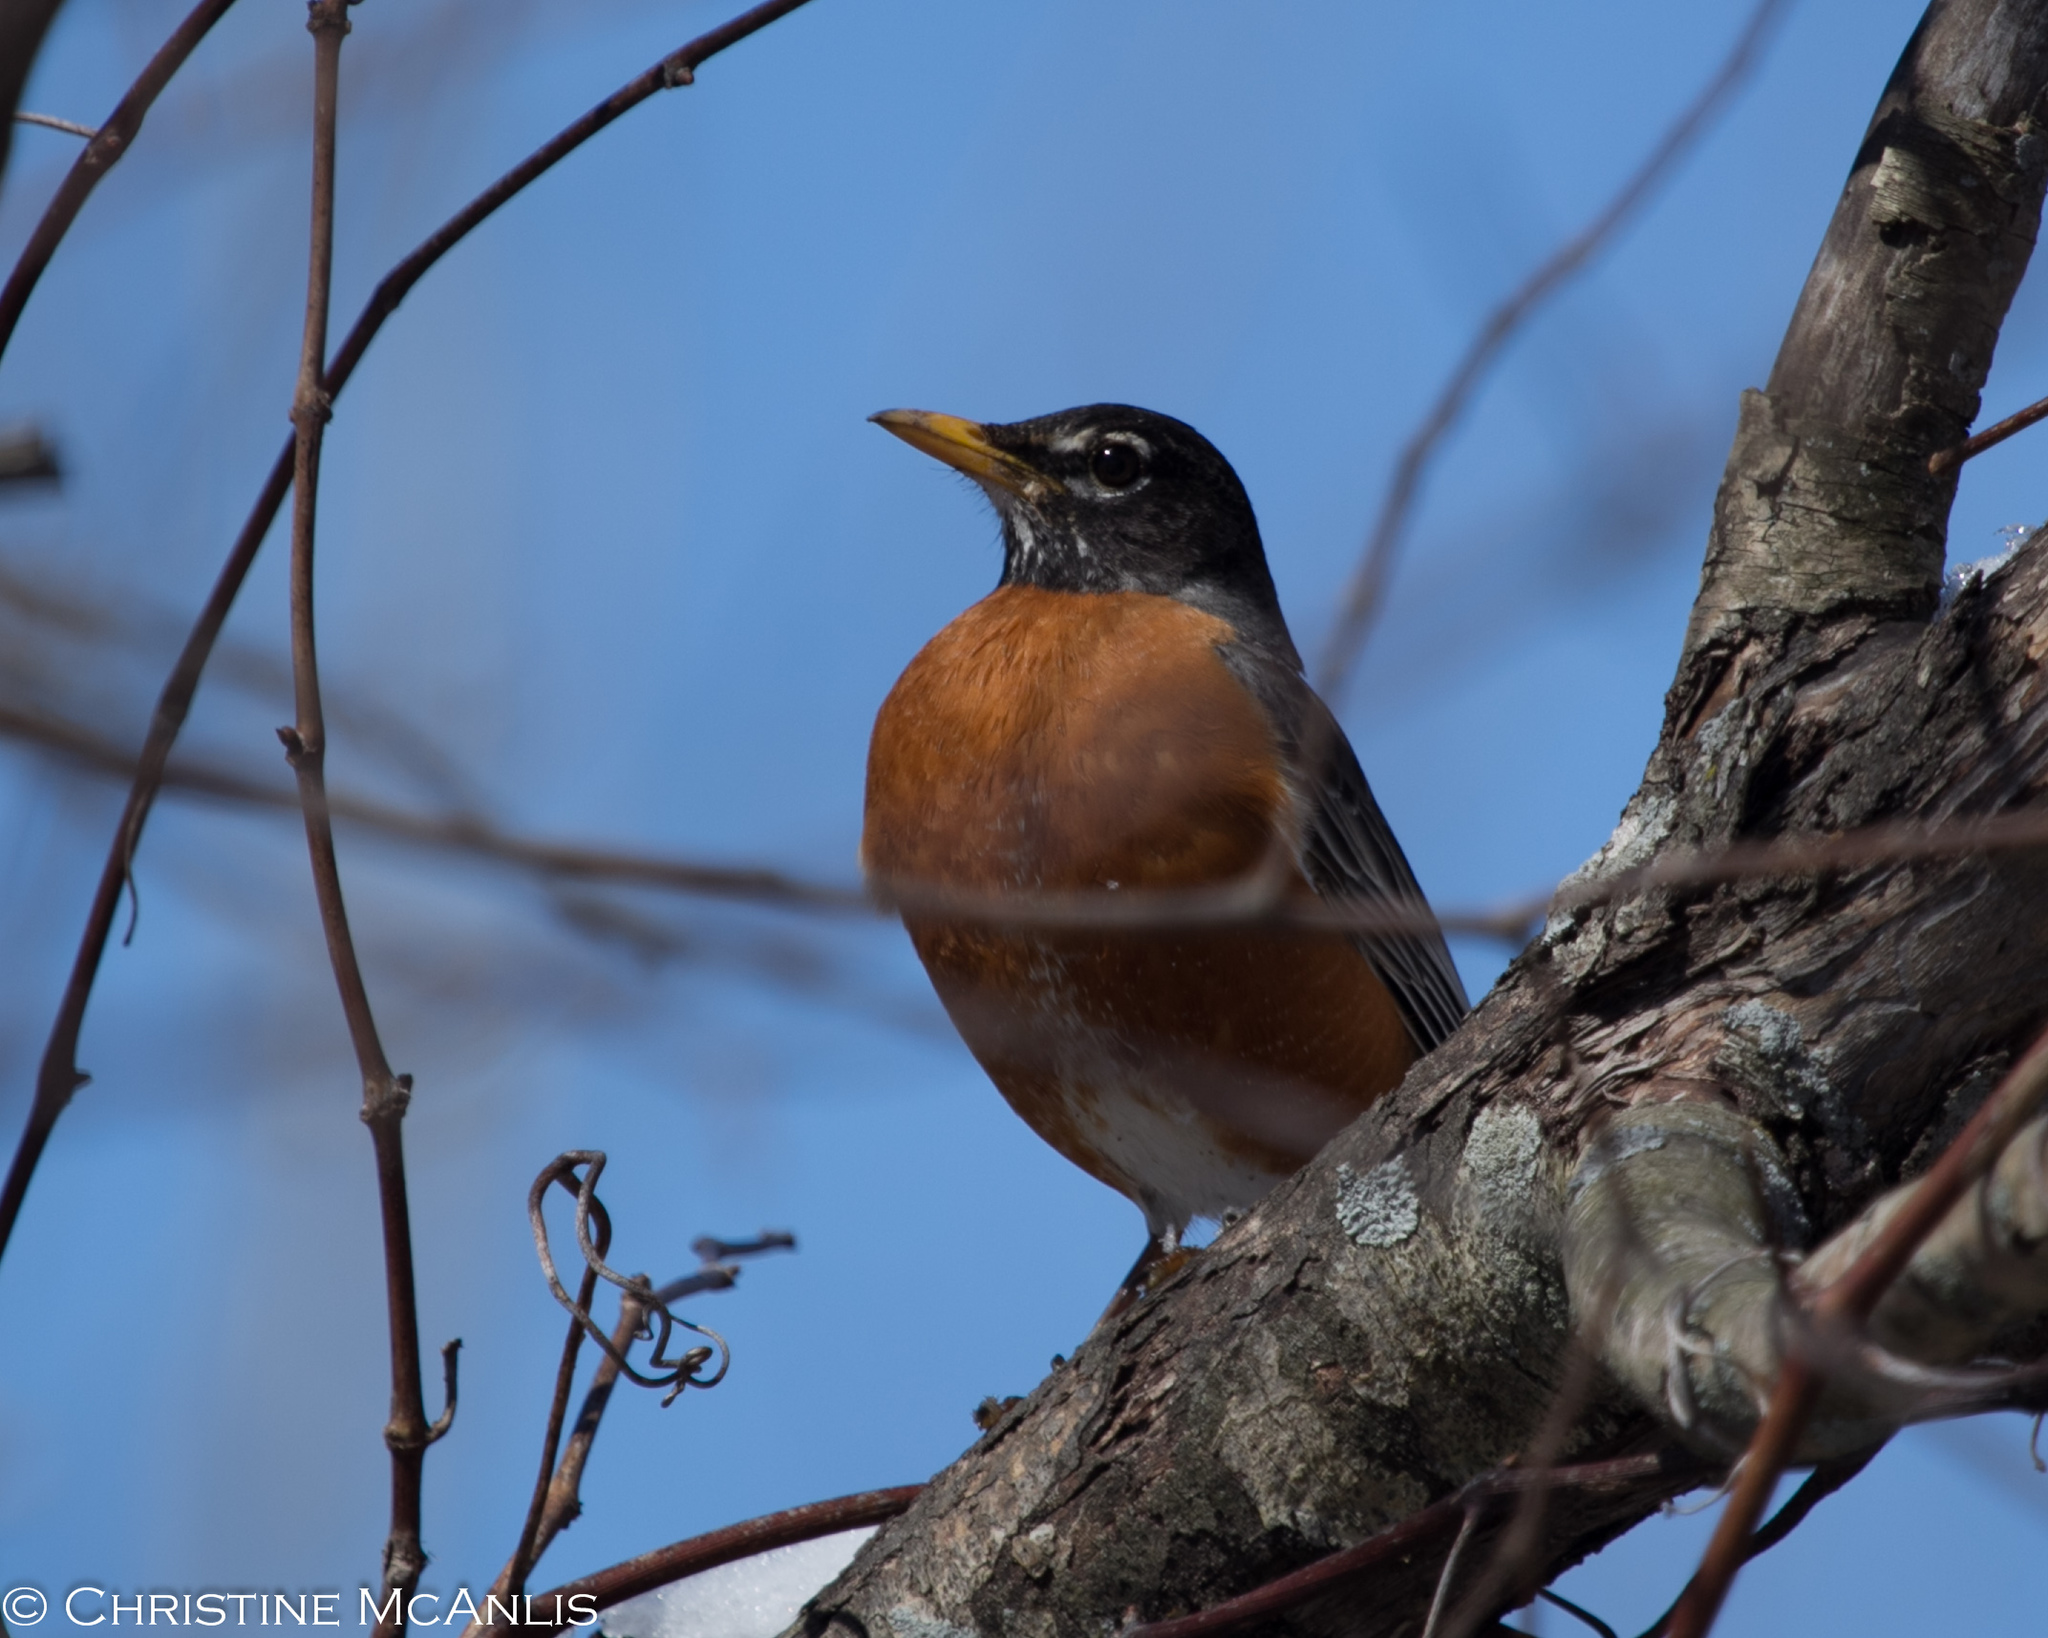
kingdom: Animalia
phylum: Chordata
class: Aves
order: Passeriformes
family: Turdidae
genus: Turdus
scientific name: Turdus migratorius
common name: American robin
